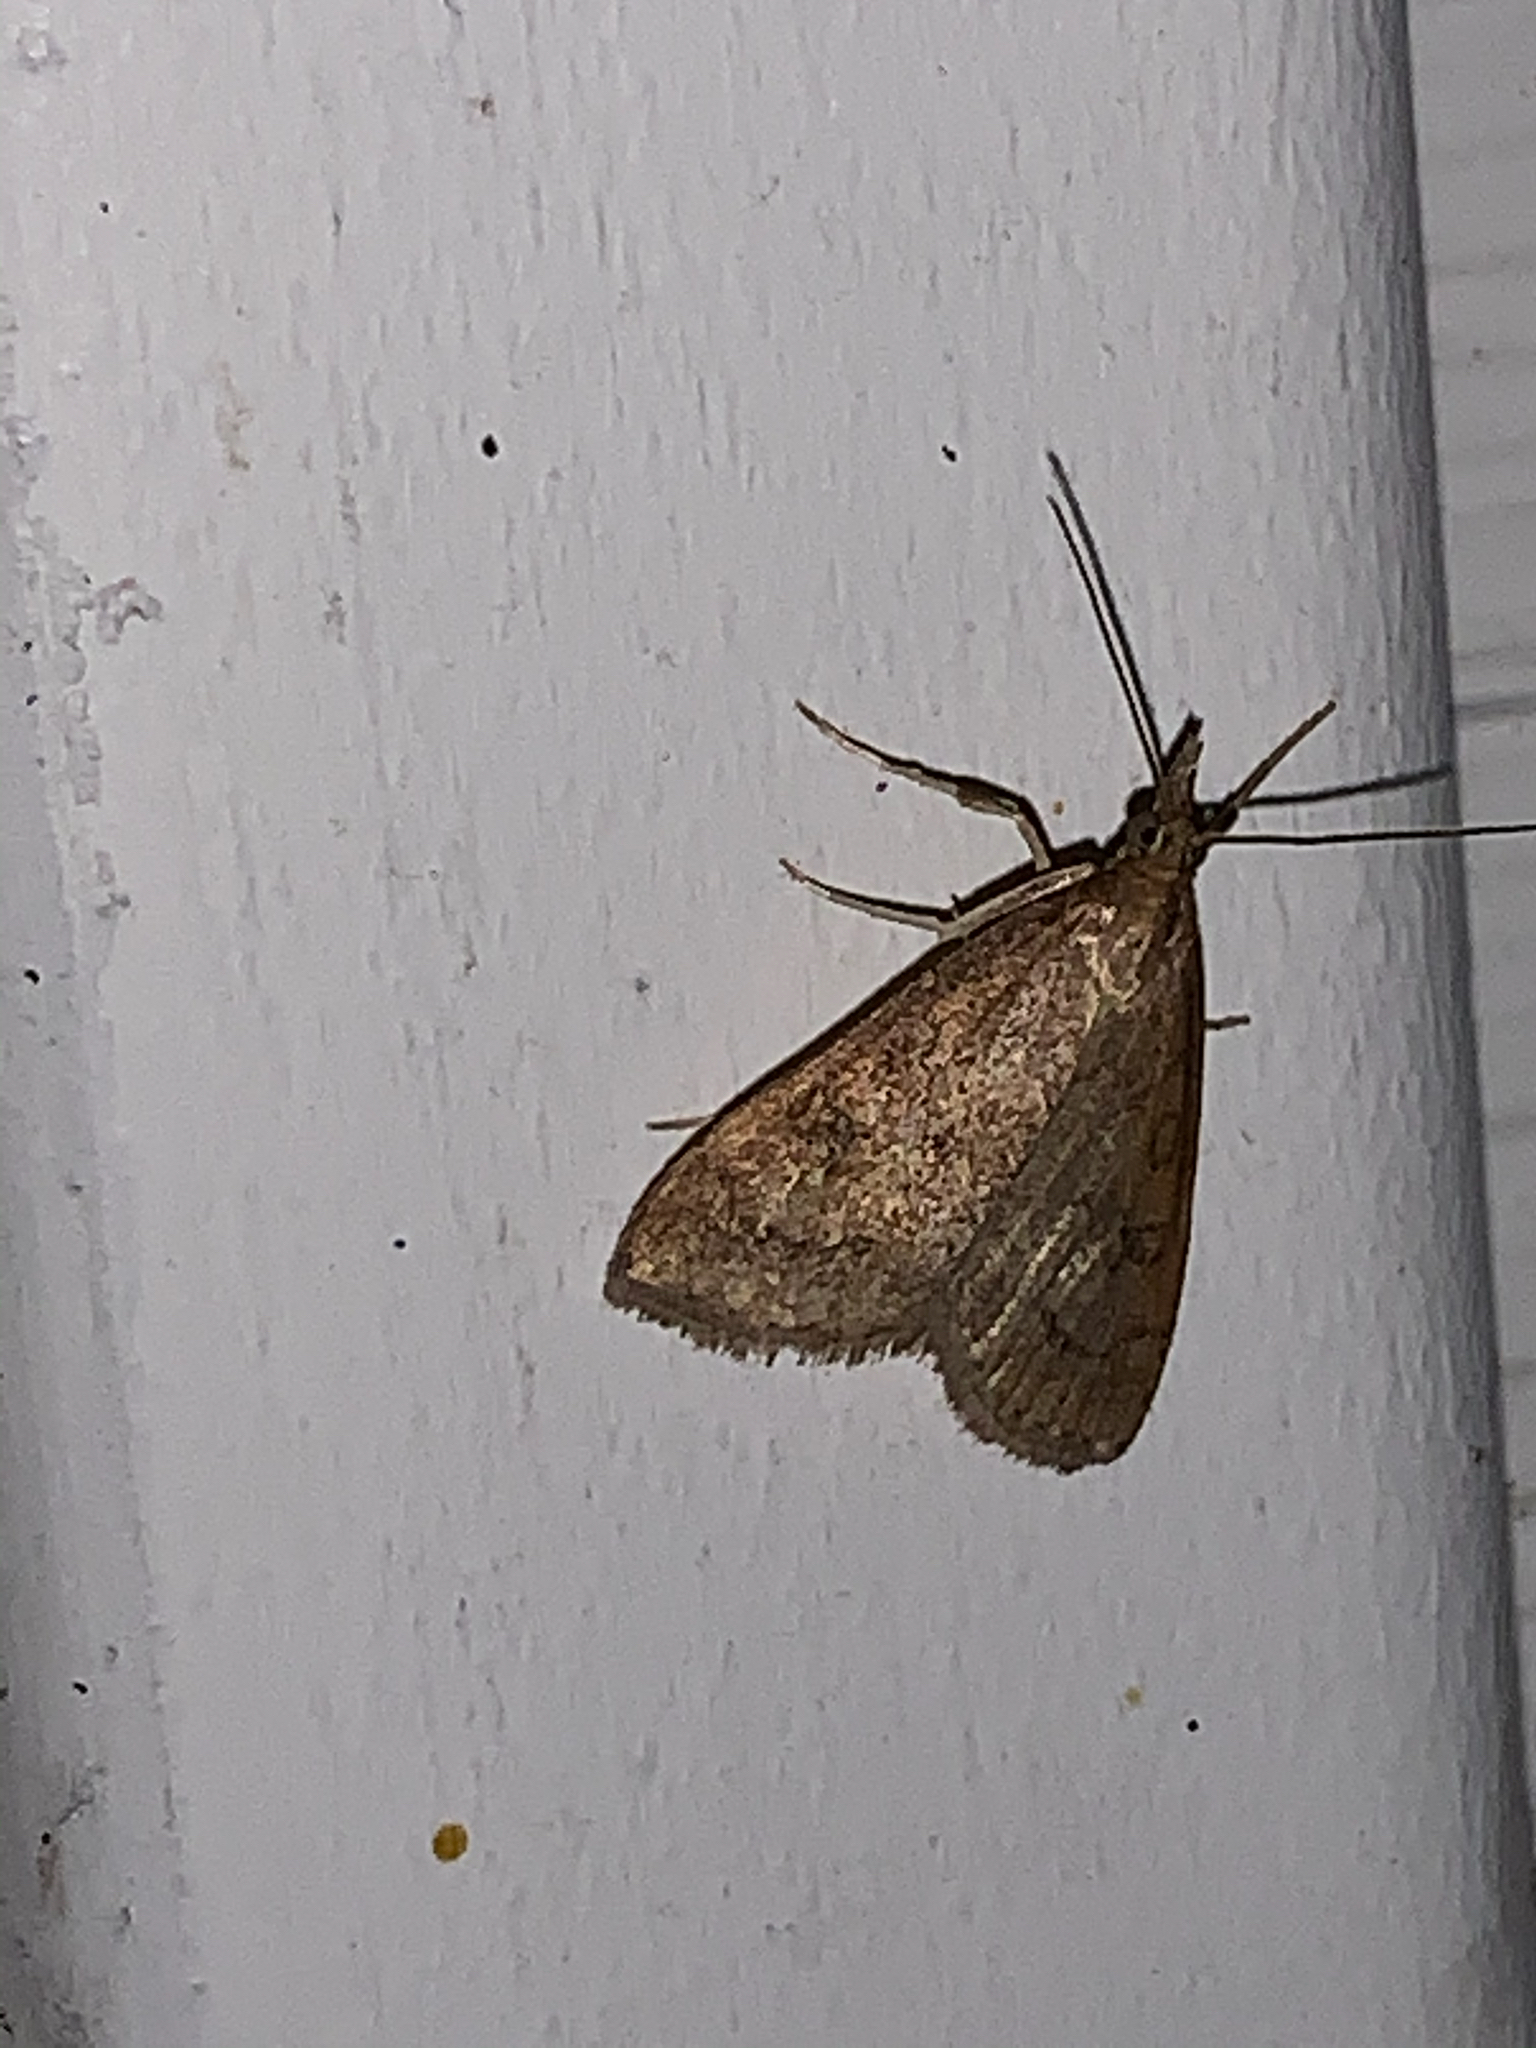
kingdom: Animalia
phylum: Arthropoda
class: Insecta
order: Lepidoptera
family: Crambidae
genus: Udea
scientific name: Udea rubigalis
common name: Celery leaftier moth
